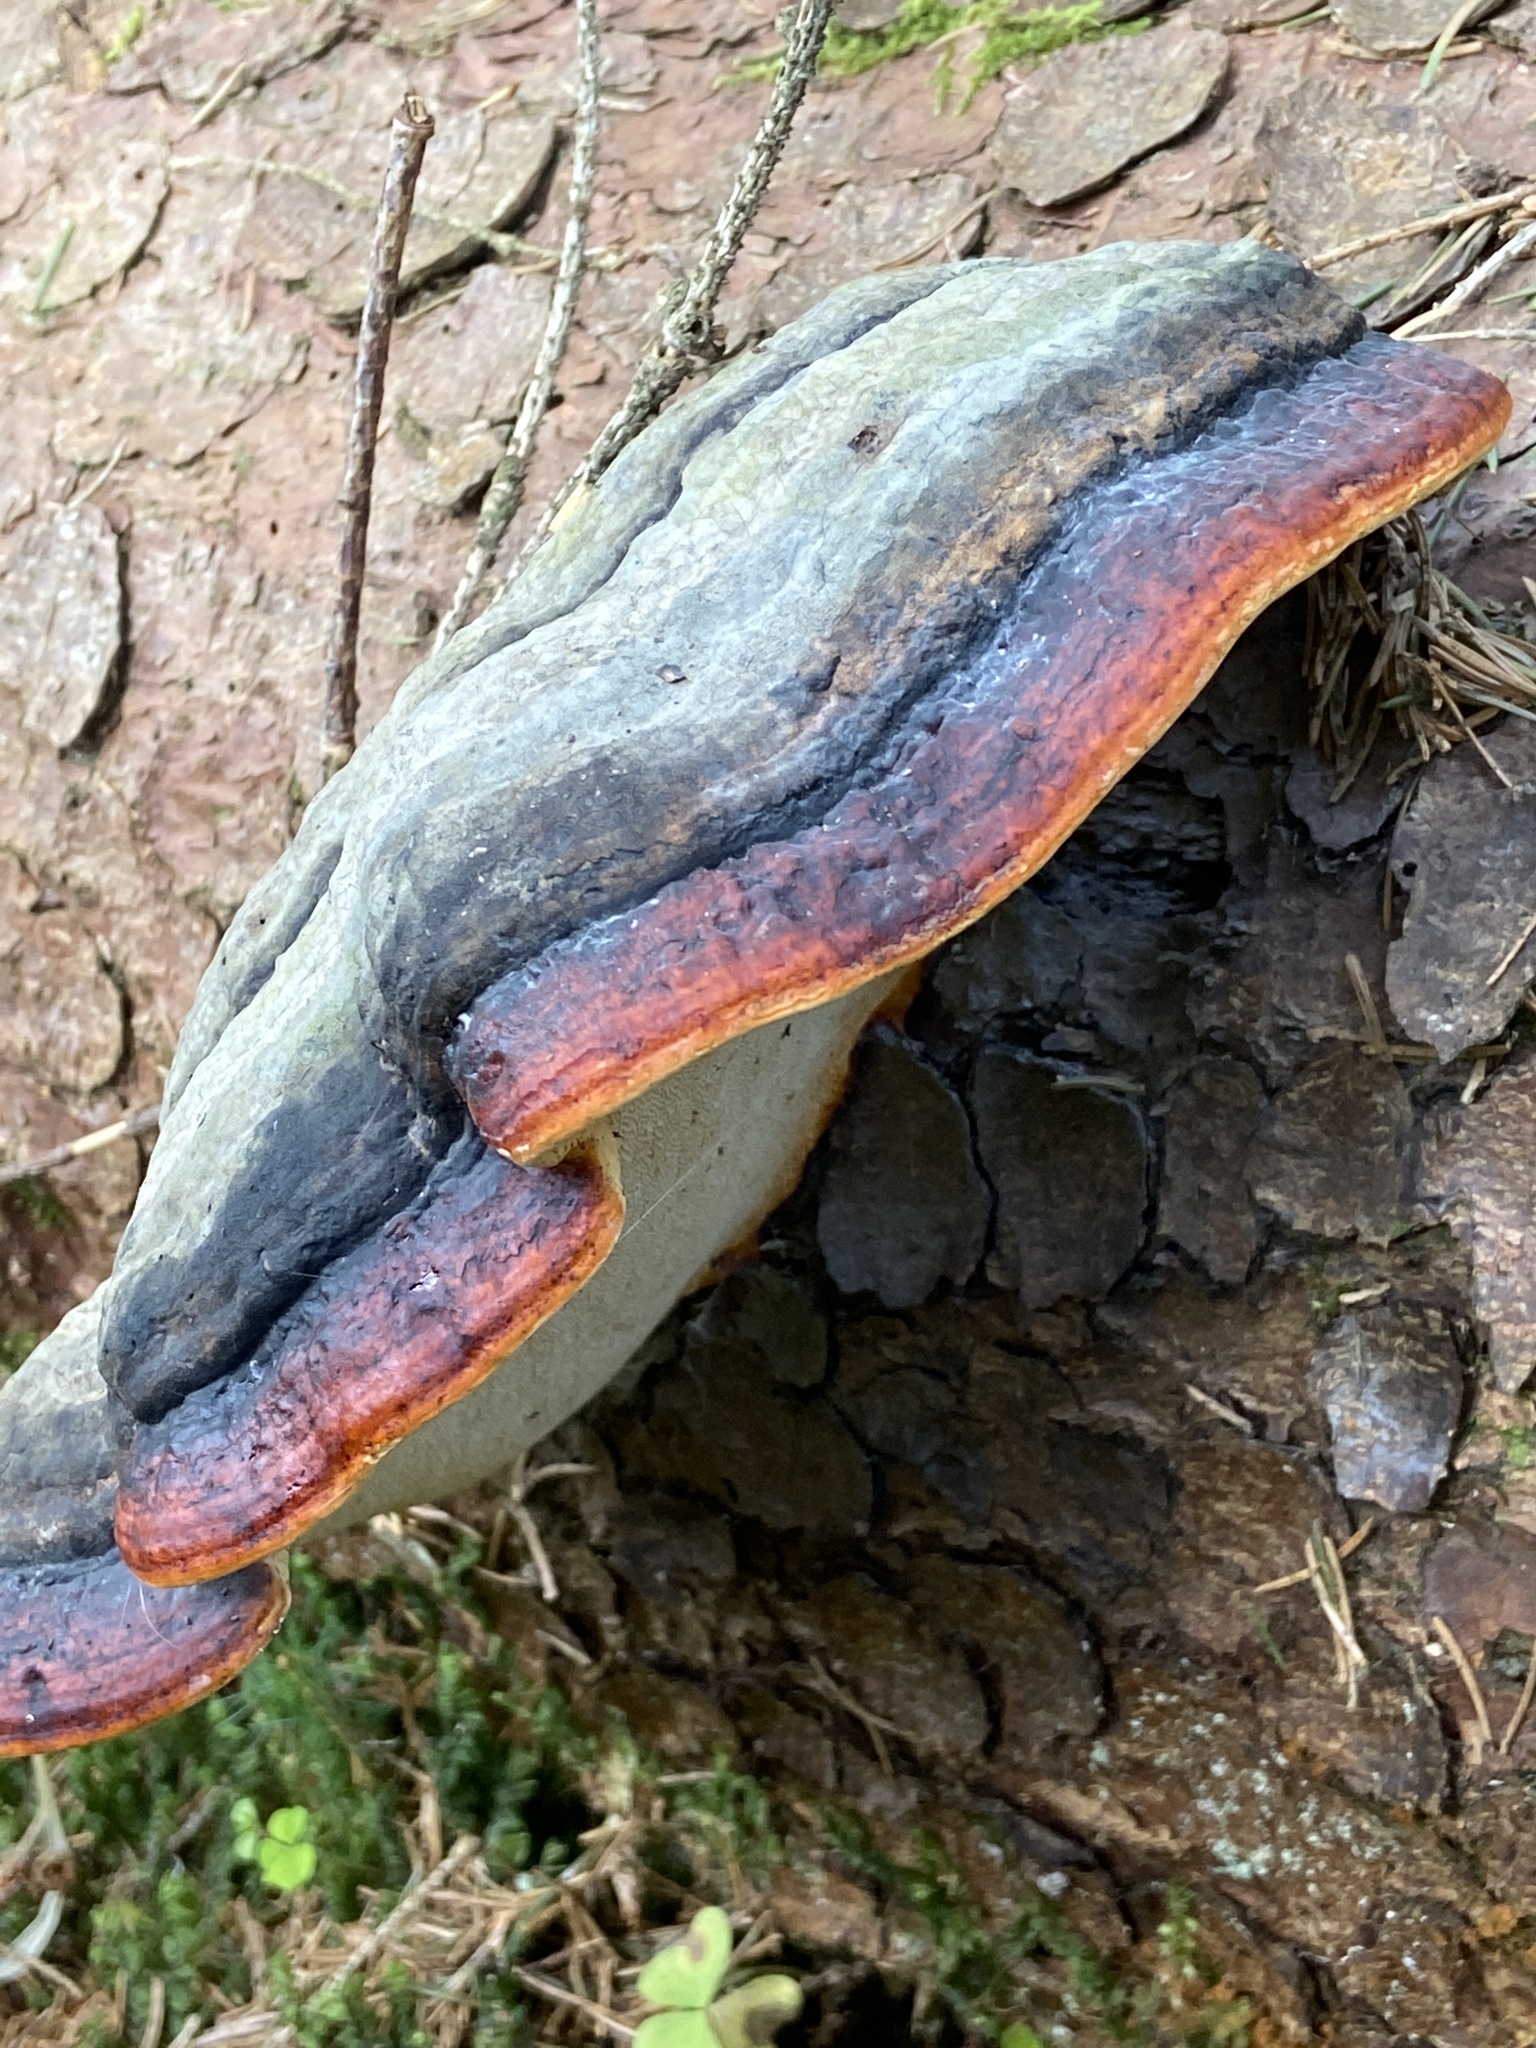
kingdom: Fungi
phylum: Basidiomycota
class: Agaricomycetes
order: Polyporales
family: Fomitopsidaceae
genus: Fomitopsis
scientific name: Fomitopsis pinicola
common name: Red-belted bracket
